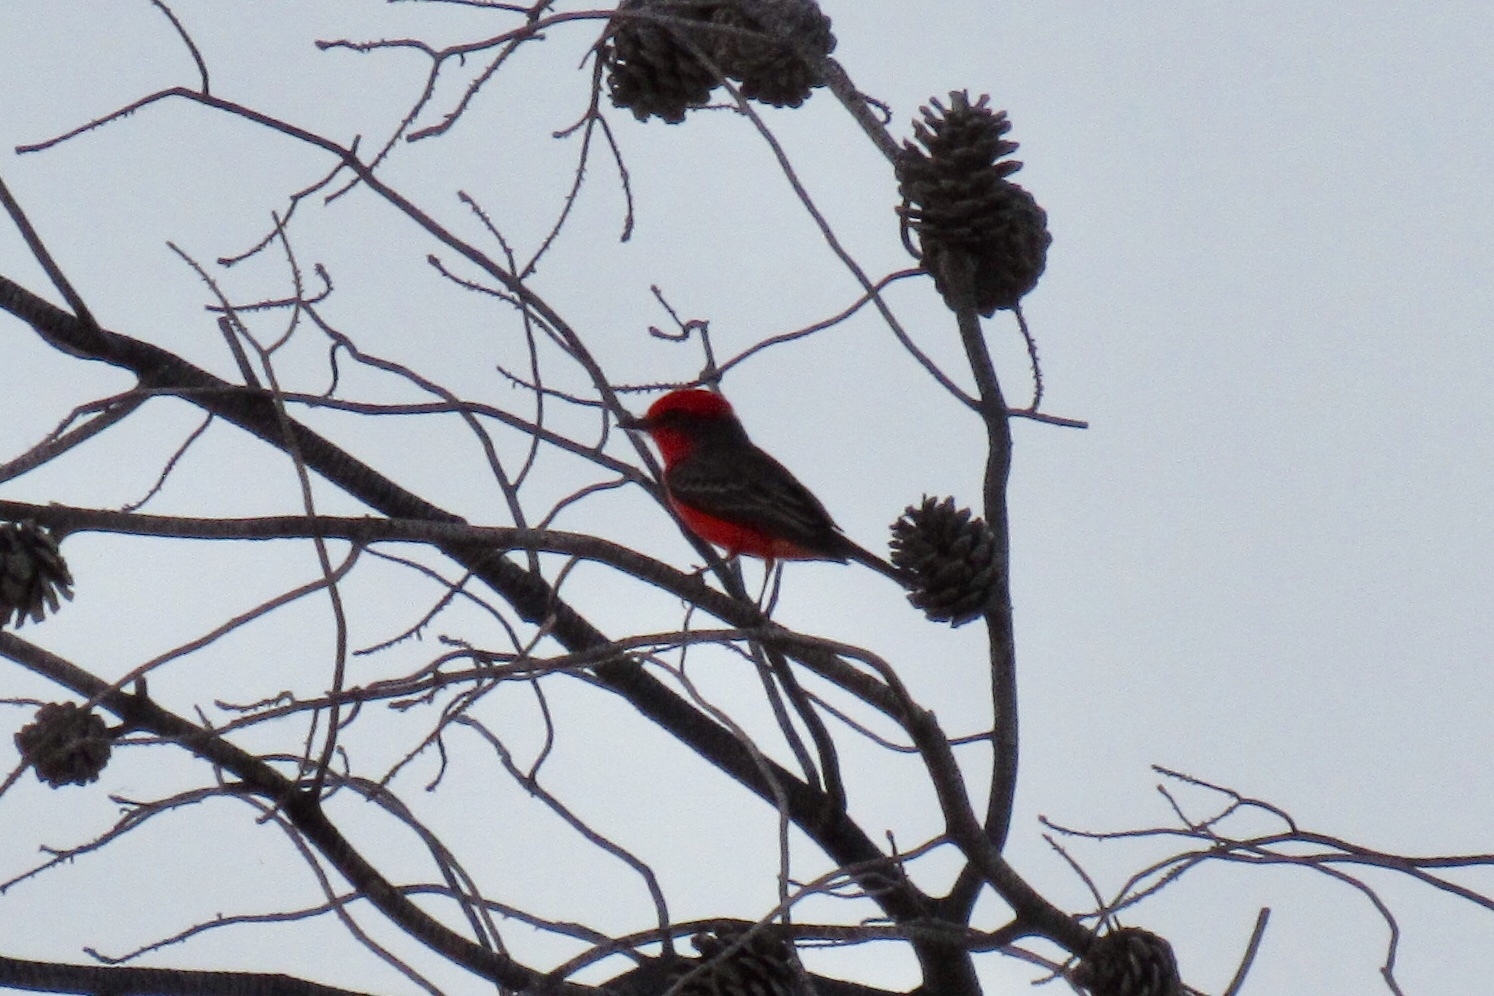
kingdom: Animalia
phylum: Chordata
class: Aves
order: Passeriformes
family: Tyrannidae
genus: Pyrocephalus
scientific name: Pyrocephalus rubinus
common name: Vermilion flycatcher
